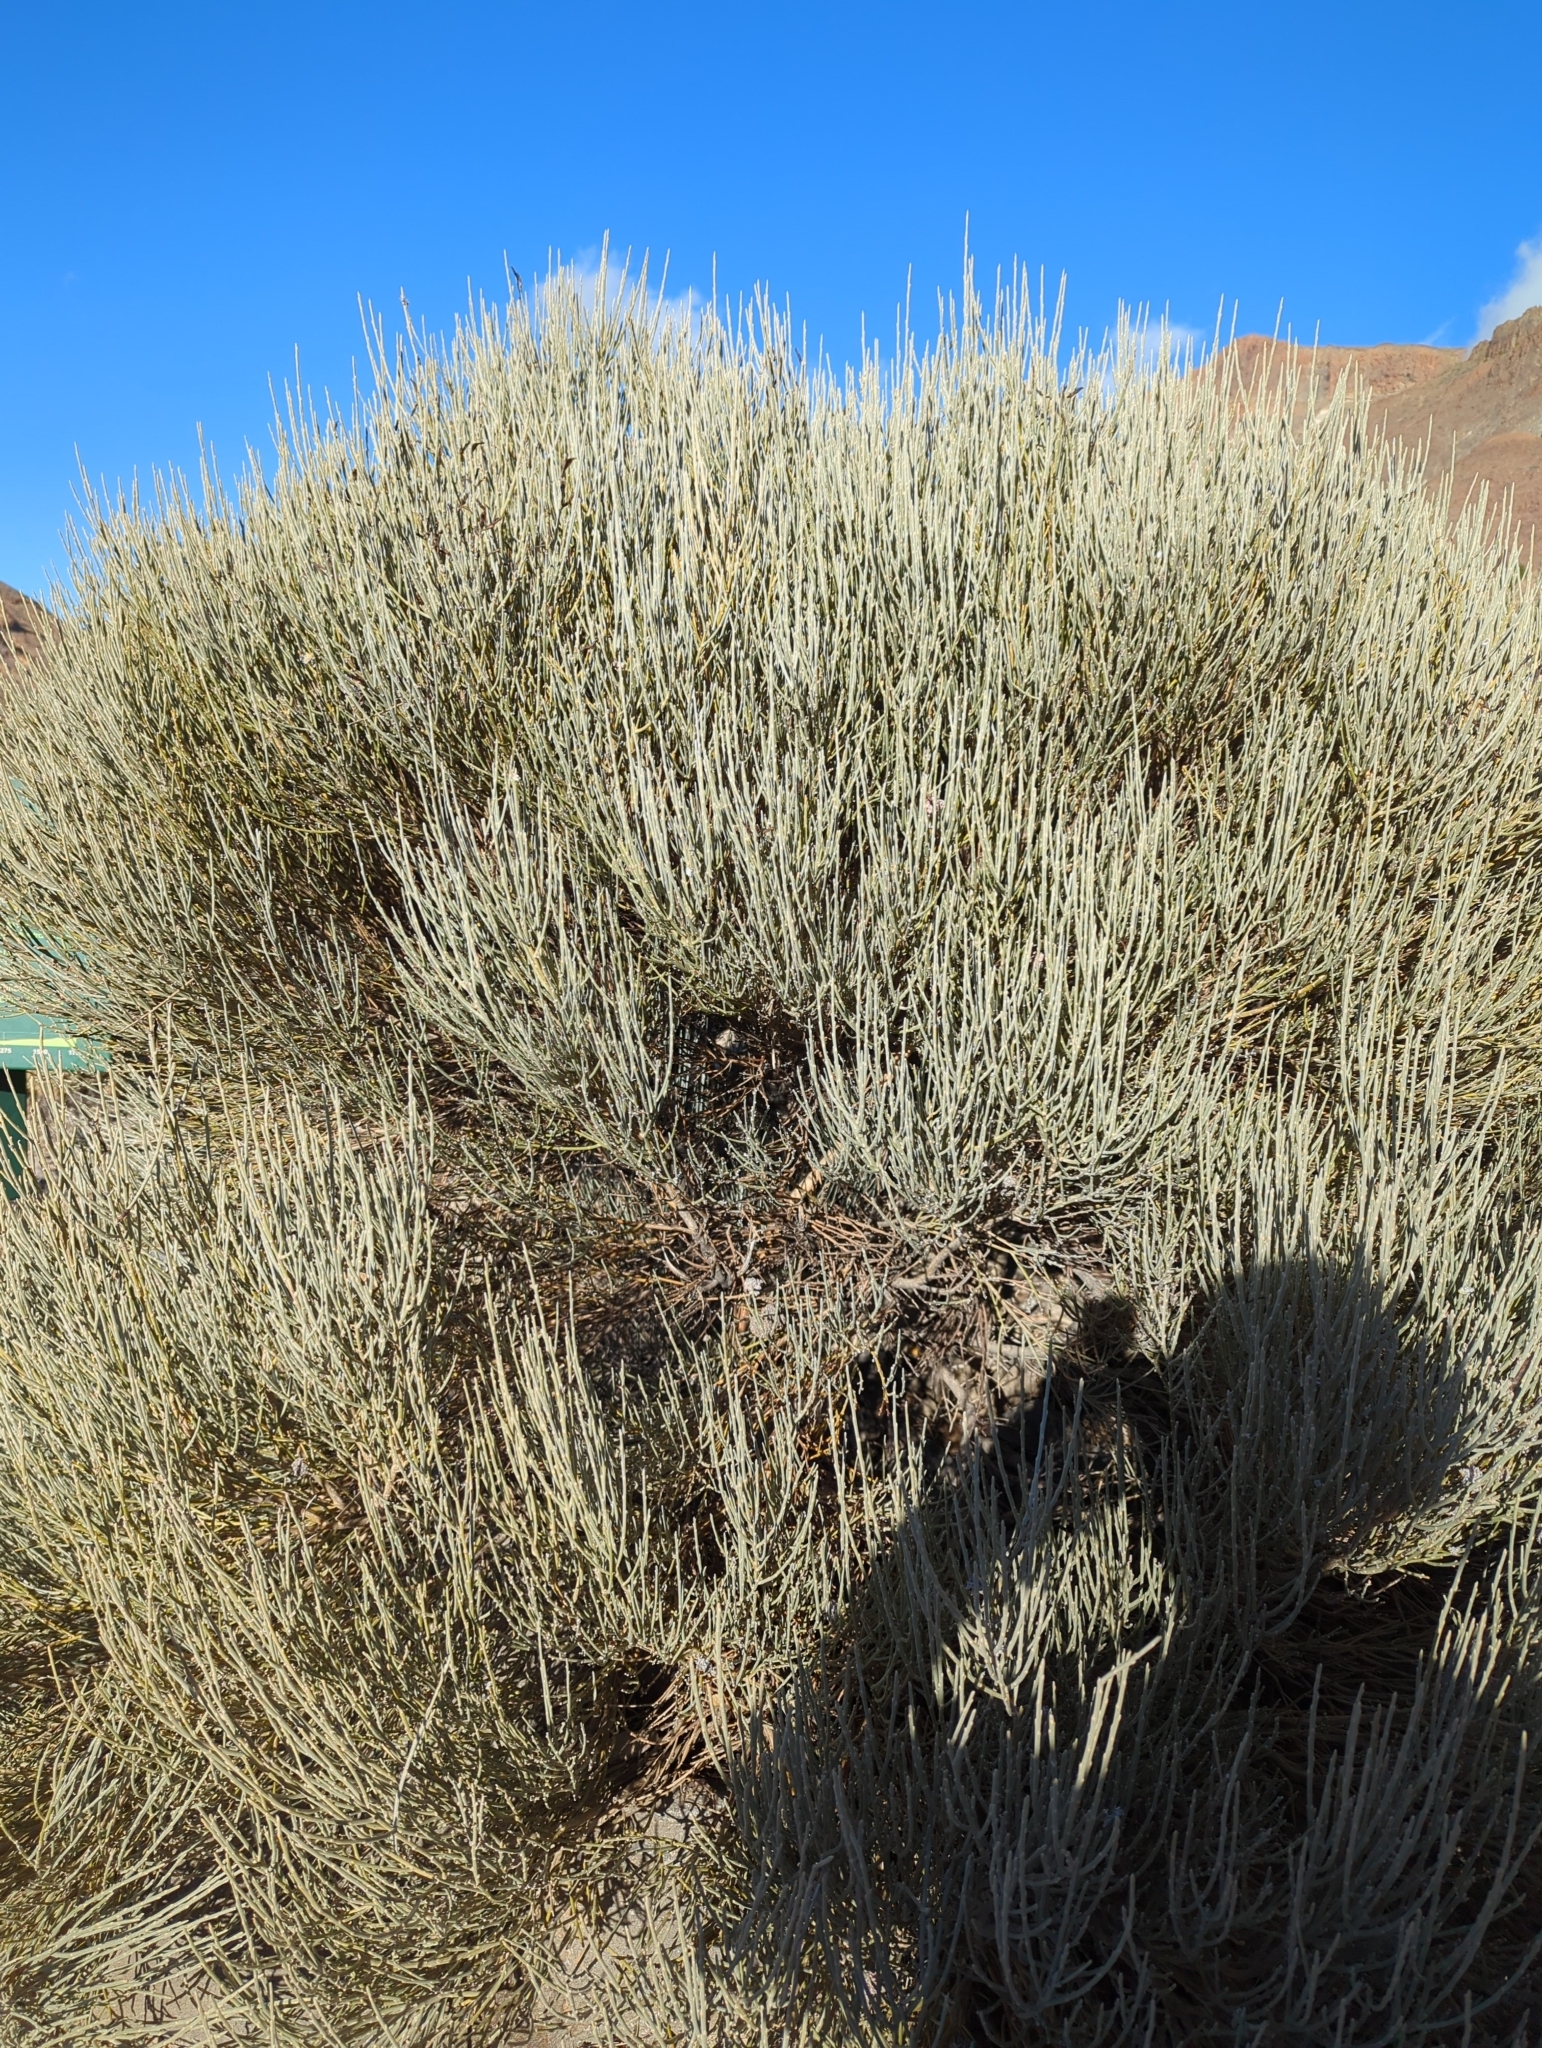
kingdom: Plantae
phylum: Tracheophyta
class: Magnoliopsida
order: Fabales
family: Fabaceae
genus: Cytisus
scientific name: Cytisus supranubius
